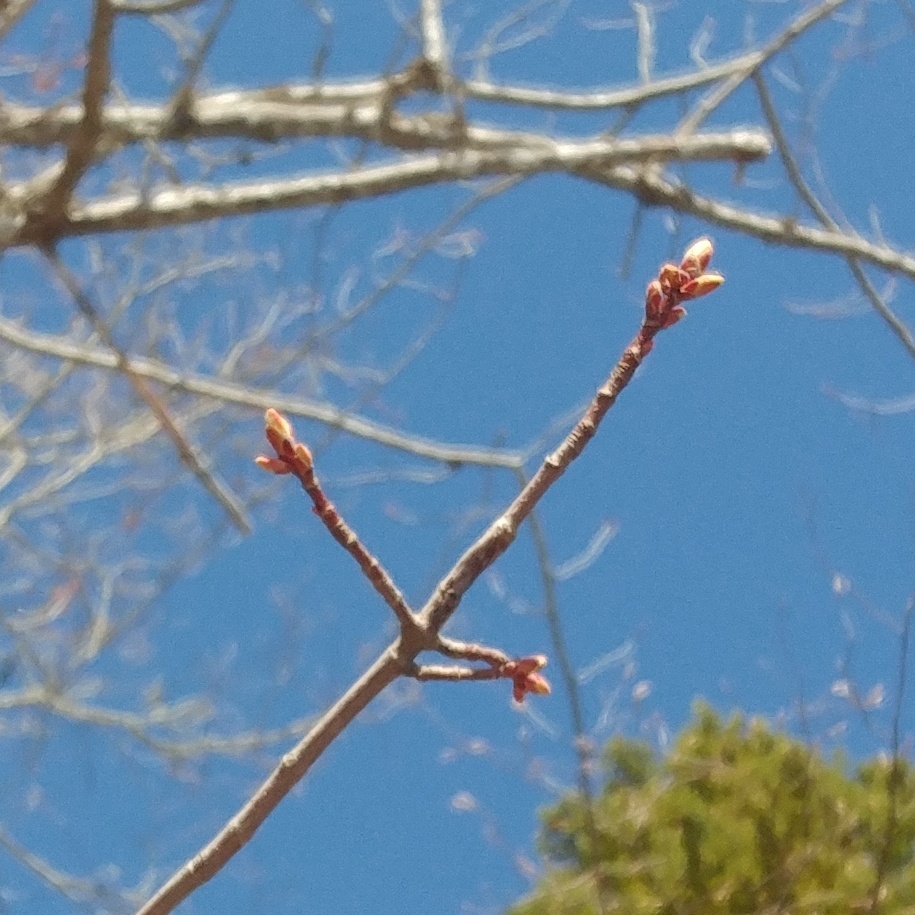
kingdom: Plantae
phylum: Tracheophyta
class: Magnoliopsida
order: Sapindales
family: Sapindaceae
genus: Acer
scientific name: Acer rubrum
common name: Red maple
